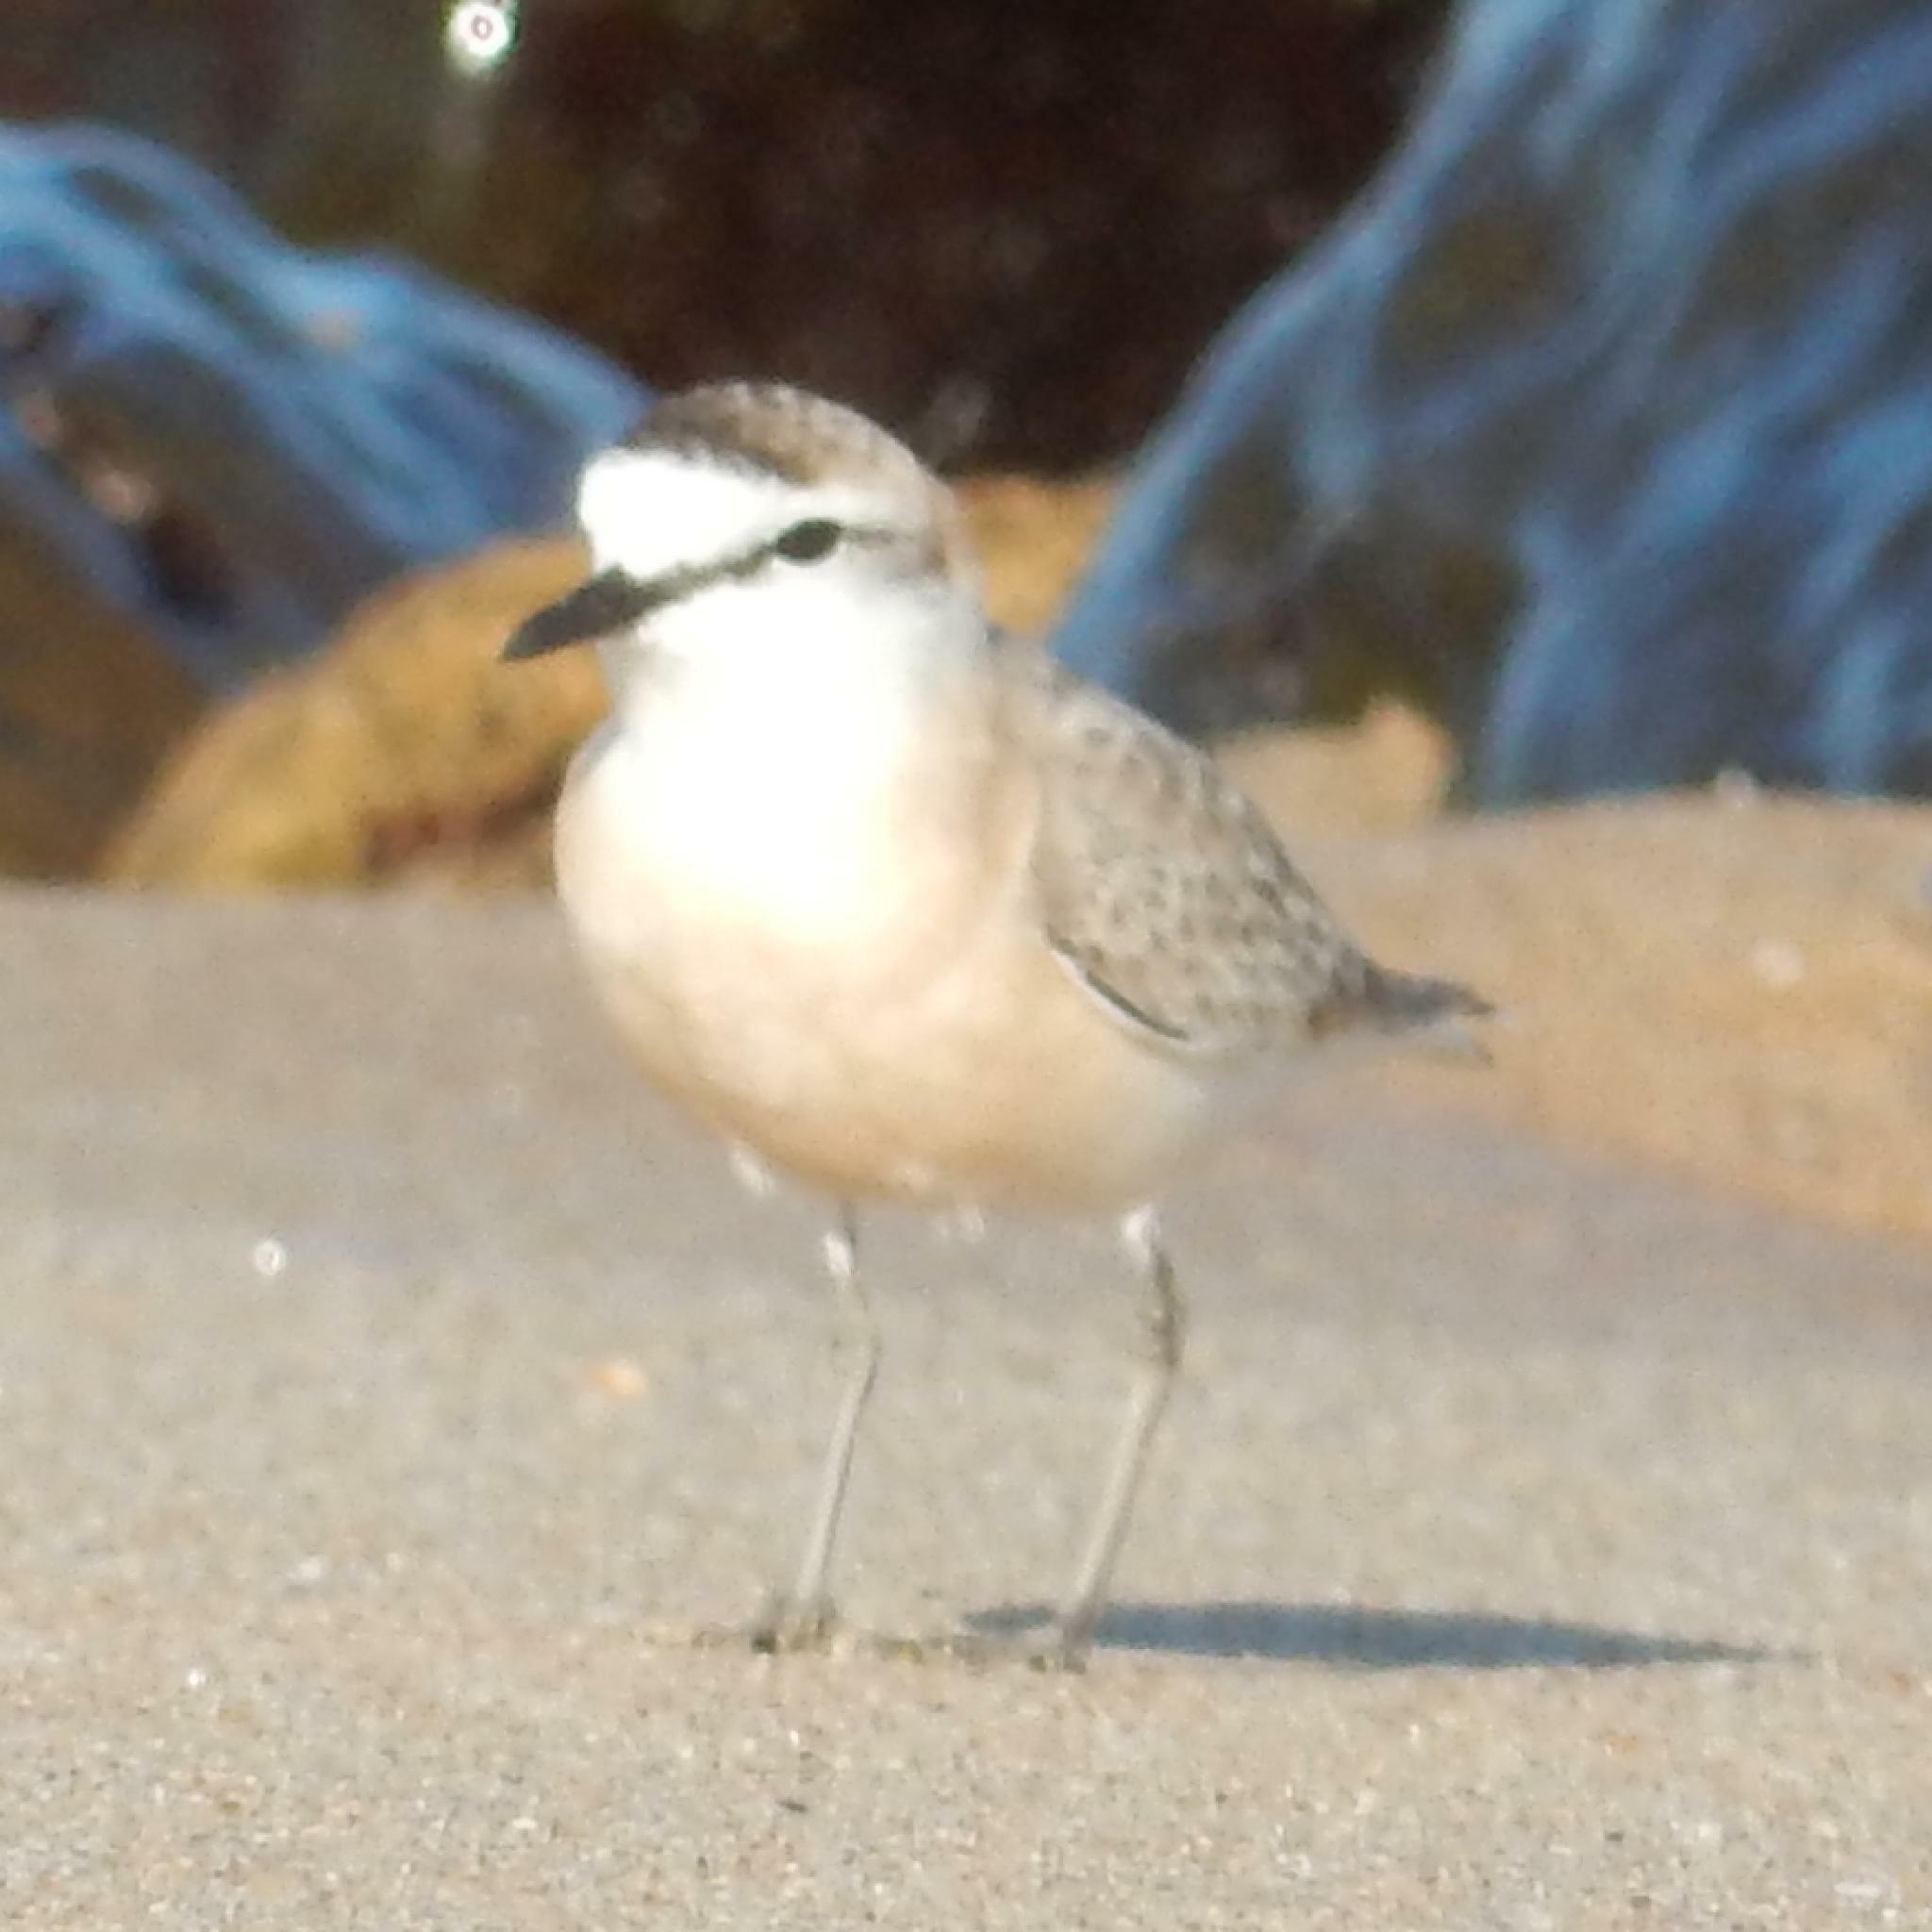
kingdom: Animalia
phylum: Chordata
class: Aves
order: Charadriiformes
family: Charadriidae
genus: Anarhynchus
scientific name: Anarhynchus
